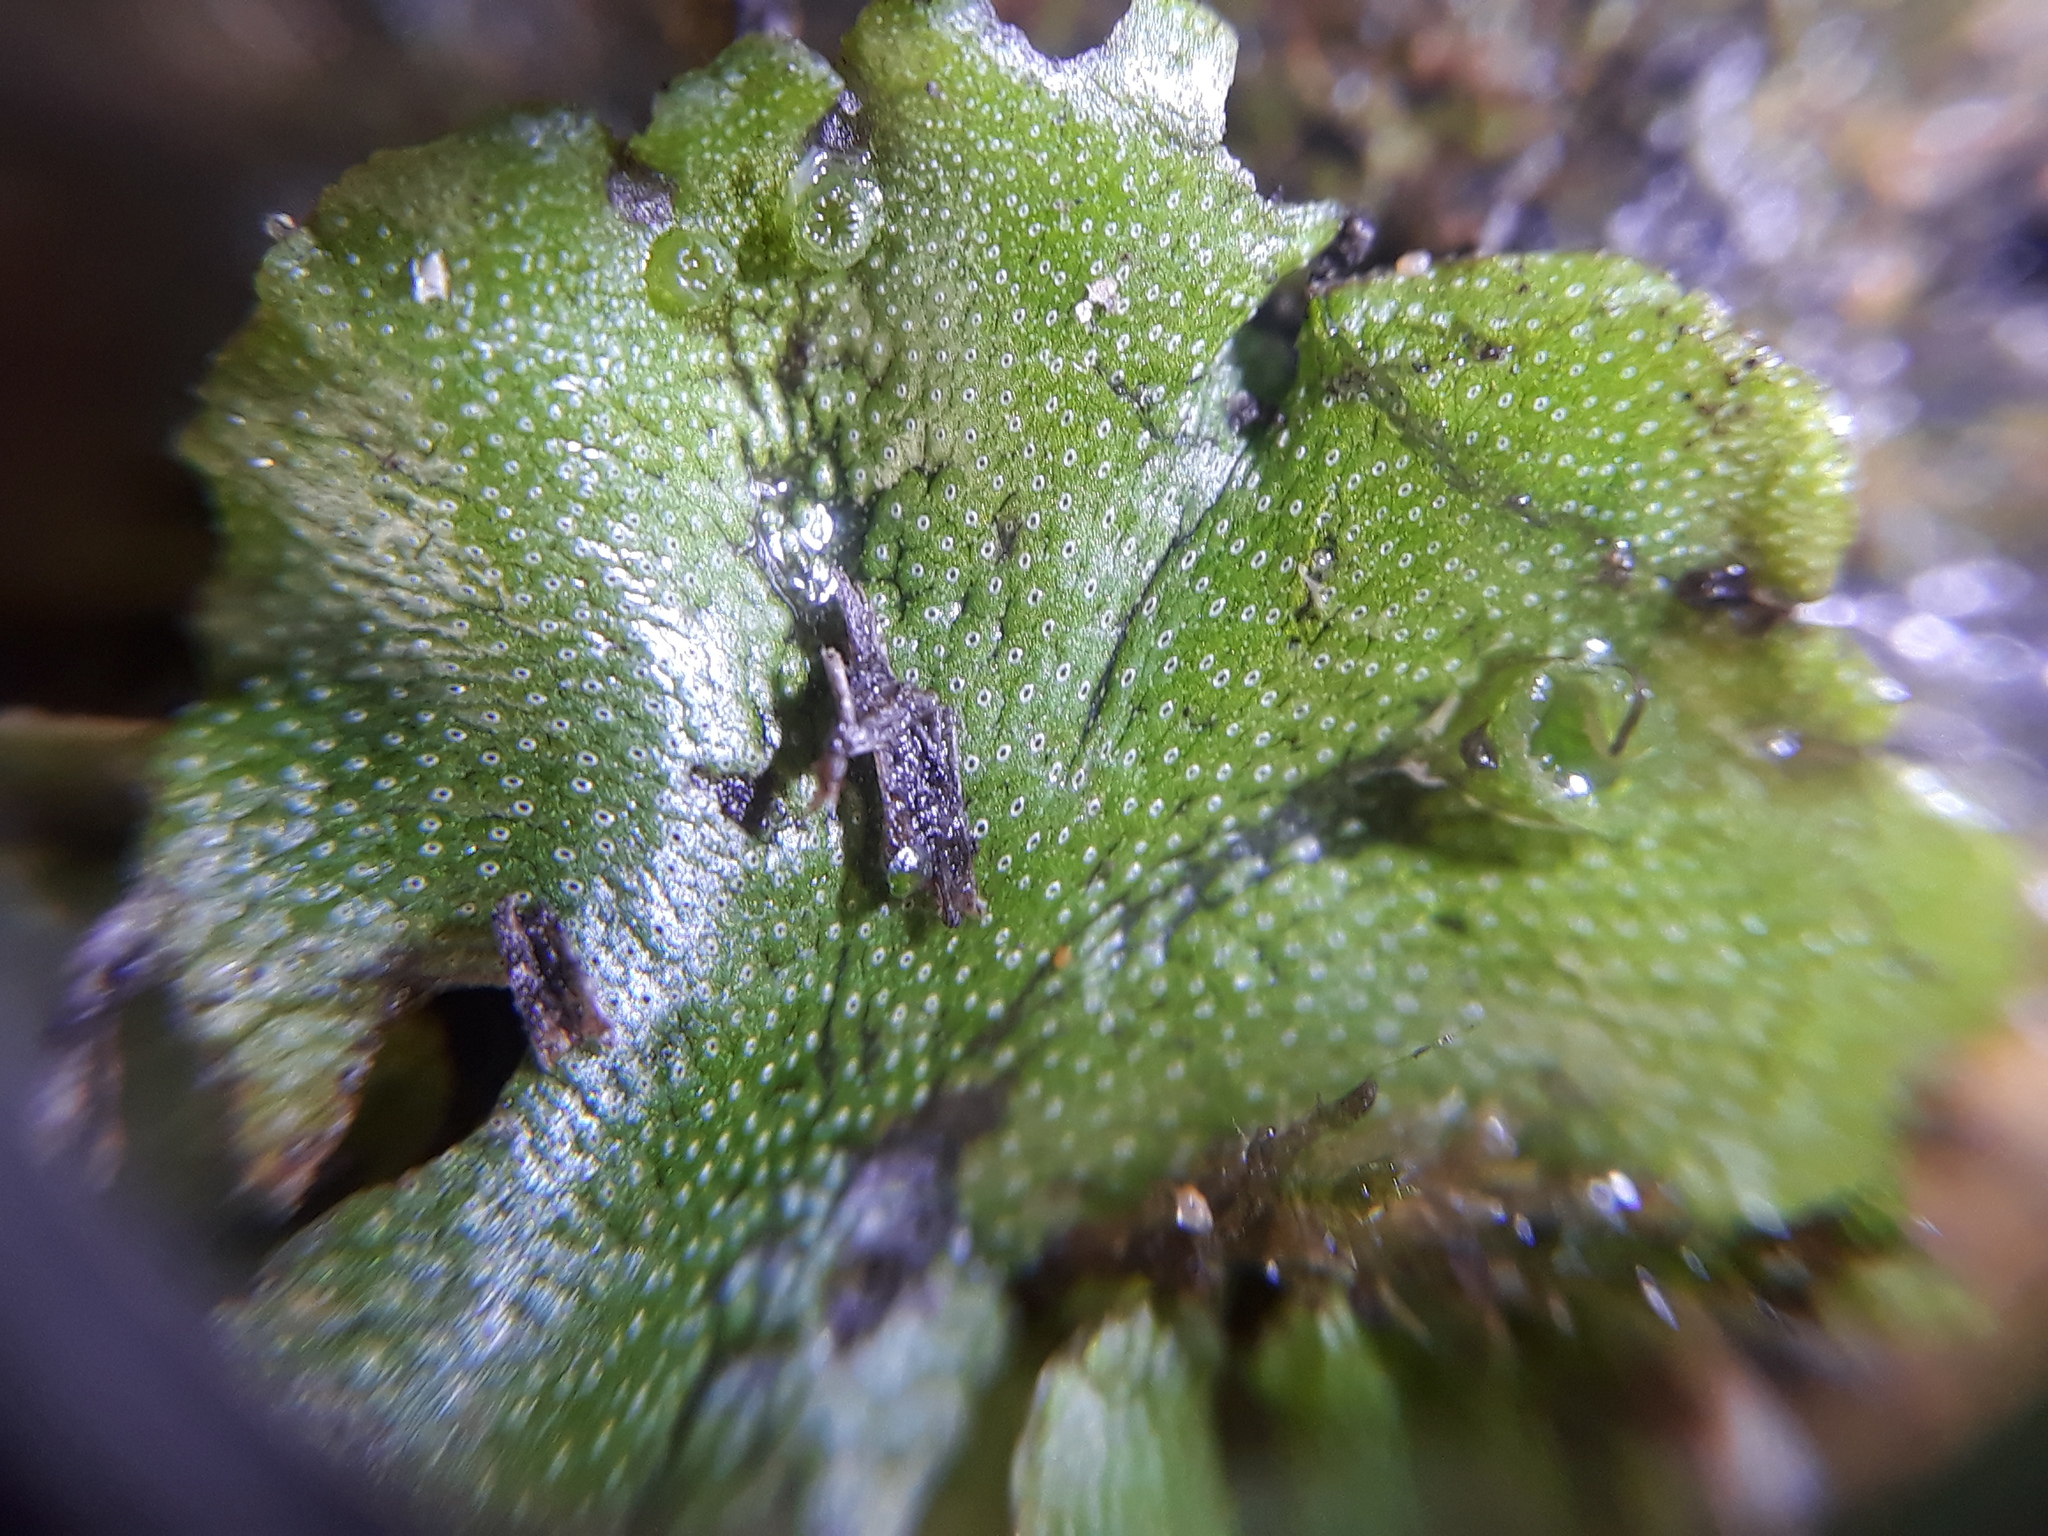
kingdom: Plantae
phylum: Marchantiophyta
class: Marchantiopsida
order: Marchantiales
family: Marchantiaceae
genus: Marchantia
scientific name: Marchantia polymorpha
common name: Common liverwort
